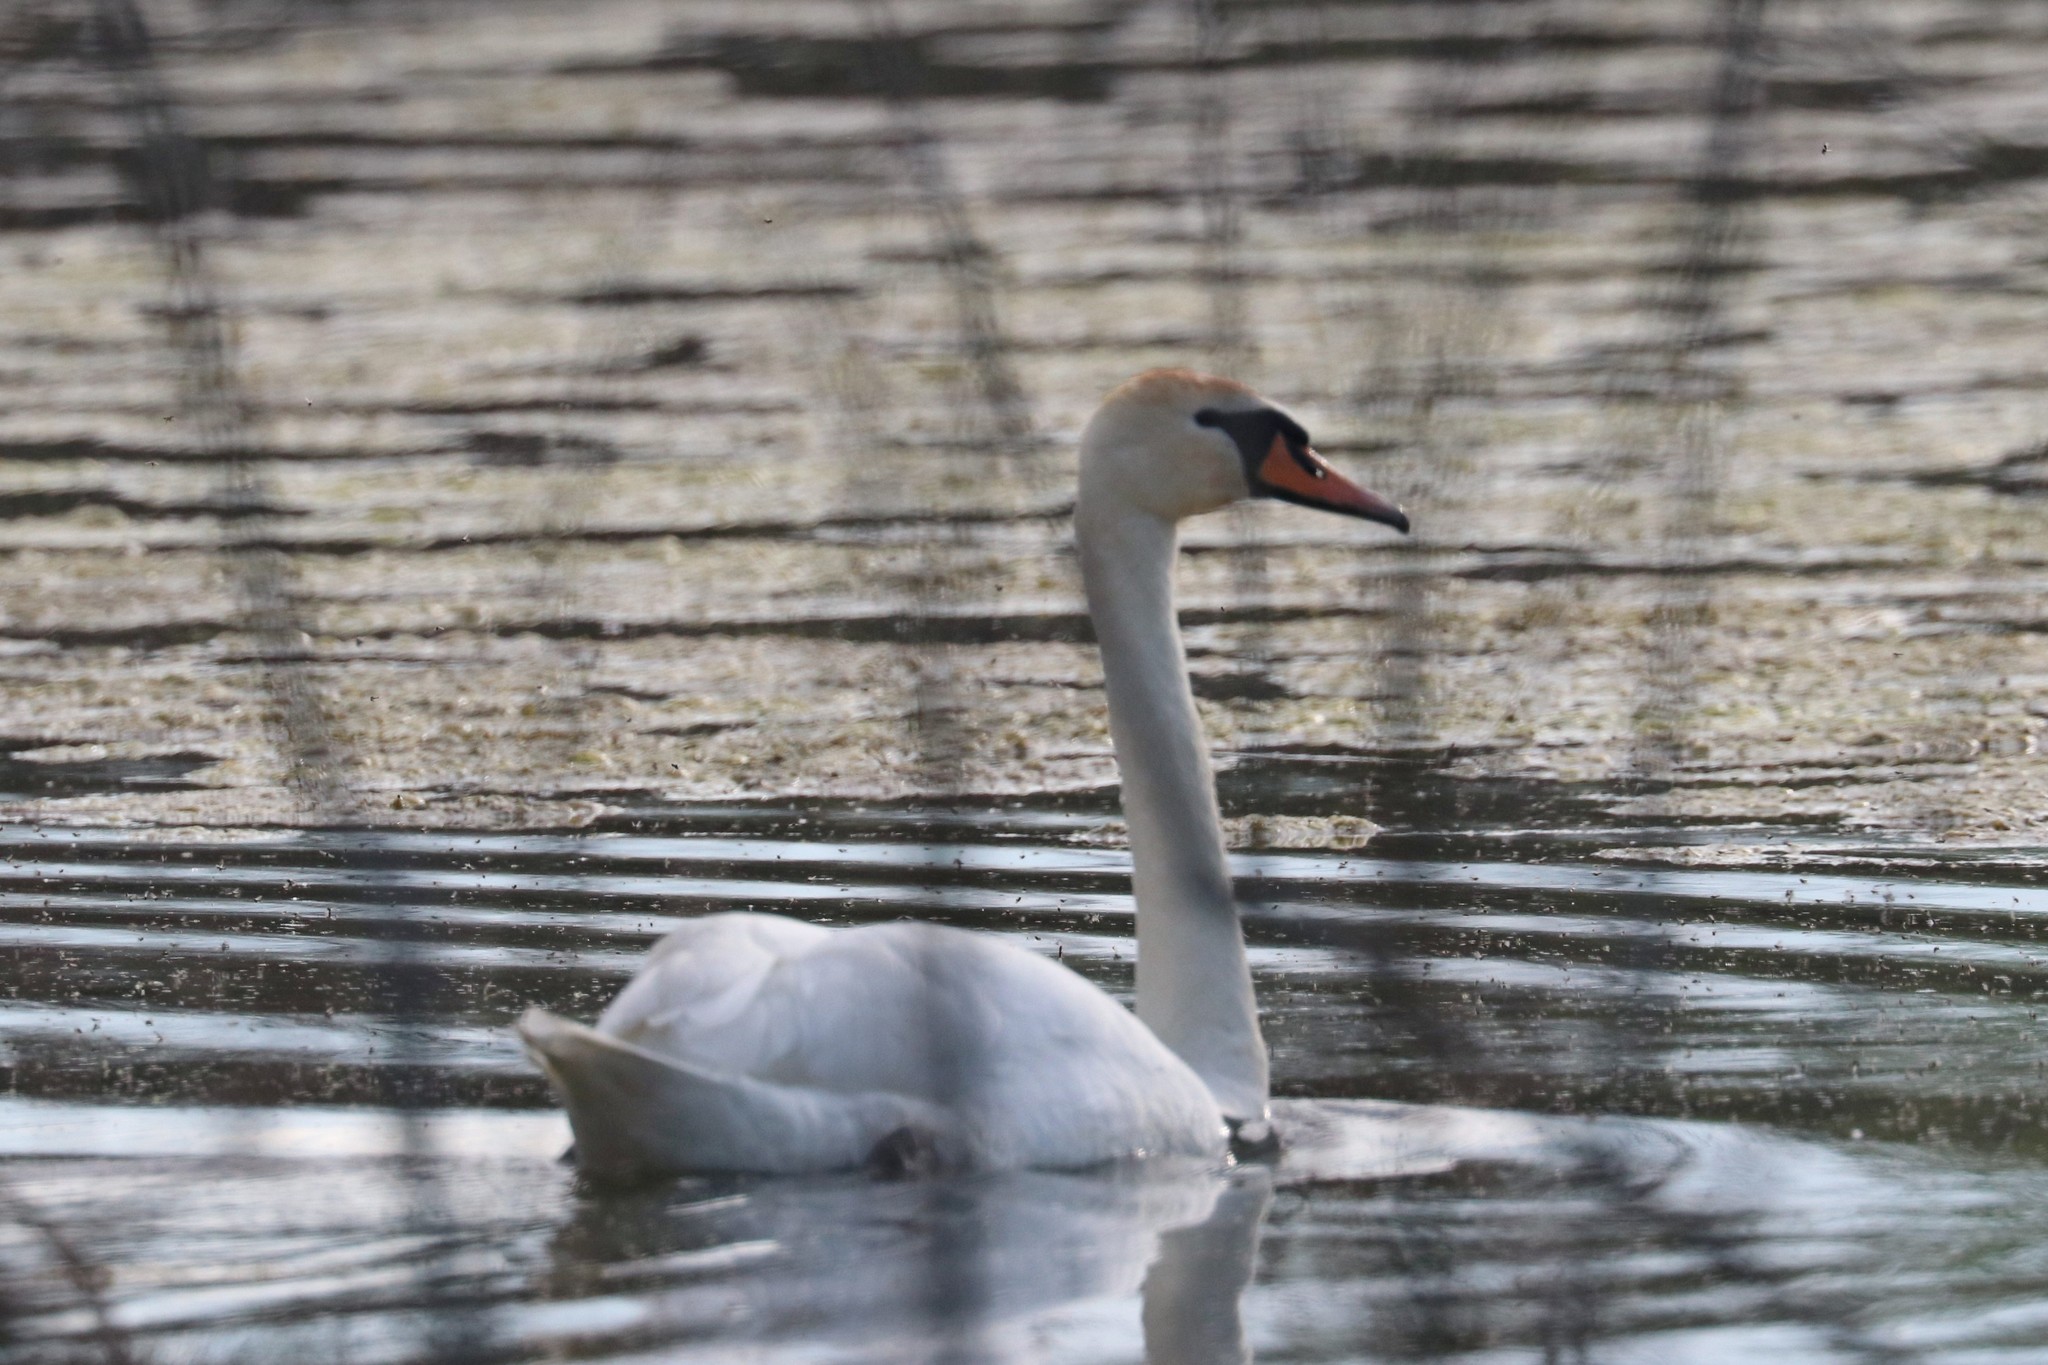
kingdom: Animalia
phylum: Chordata
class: Aves
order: Anseriformes
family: Anatidae
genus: Cygnus
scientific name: Cygnus olor
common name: Mute swan
